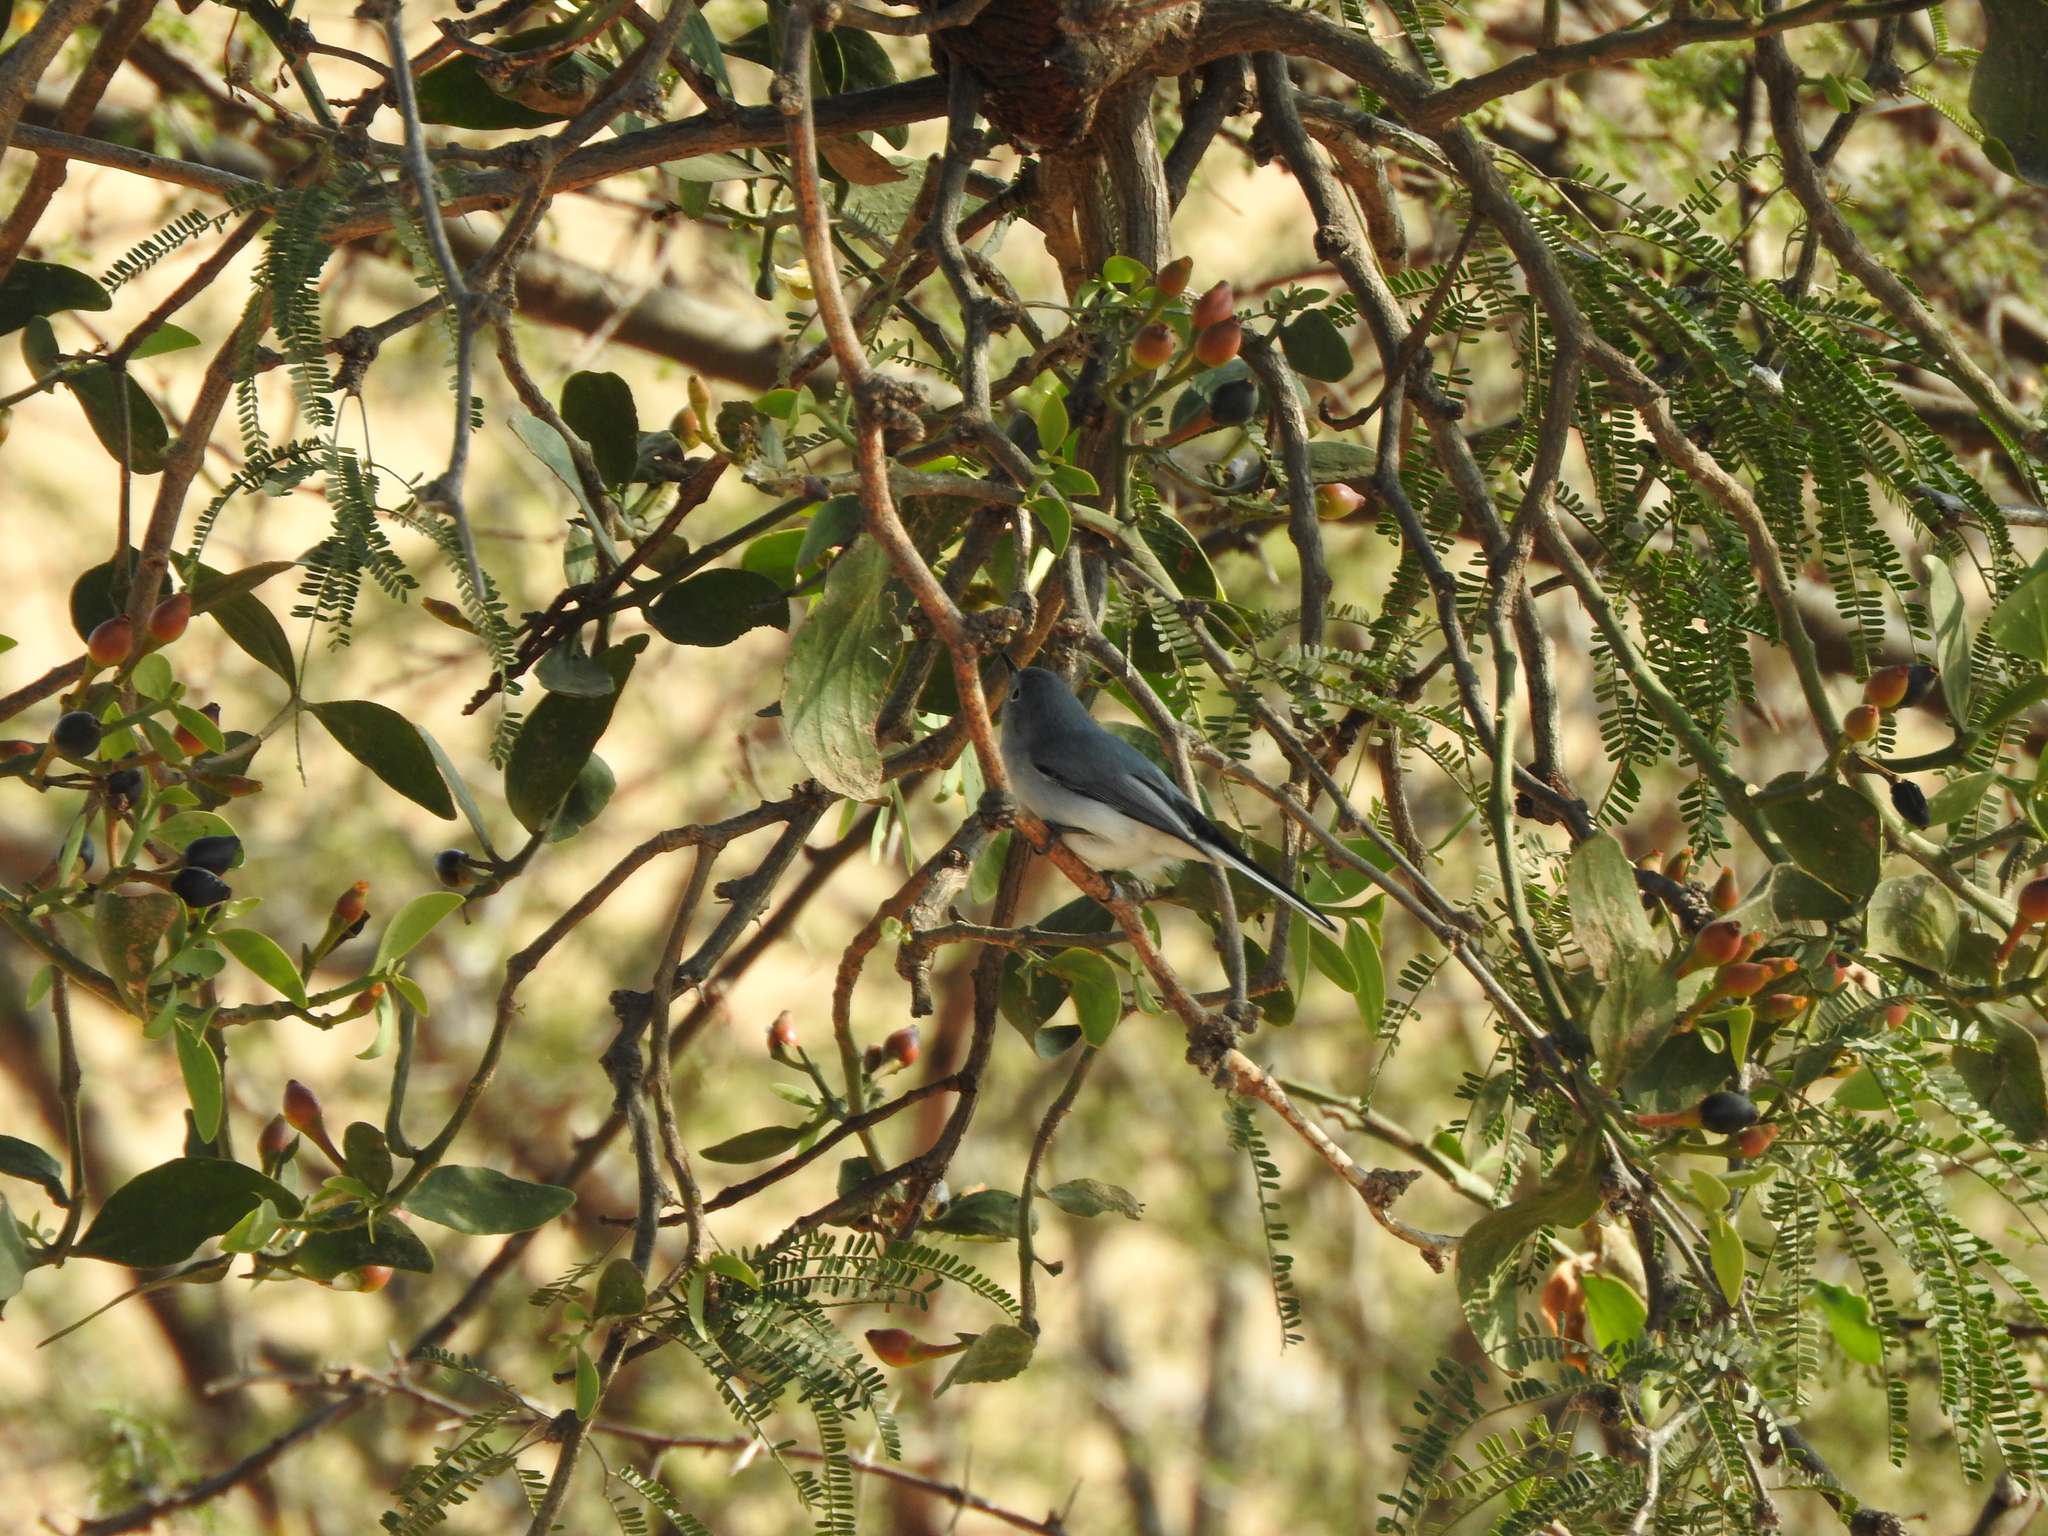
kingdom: Animalia
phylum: Chordata
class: Aves
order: Passeriformes
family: Polioptilidae
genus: Polioptila
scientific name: Polioptila caerulea
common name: Blue-gray gnatcatcher
